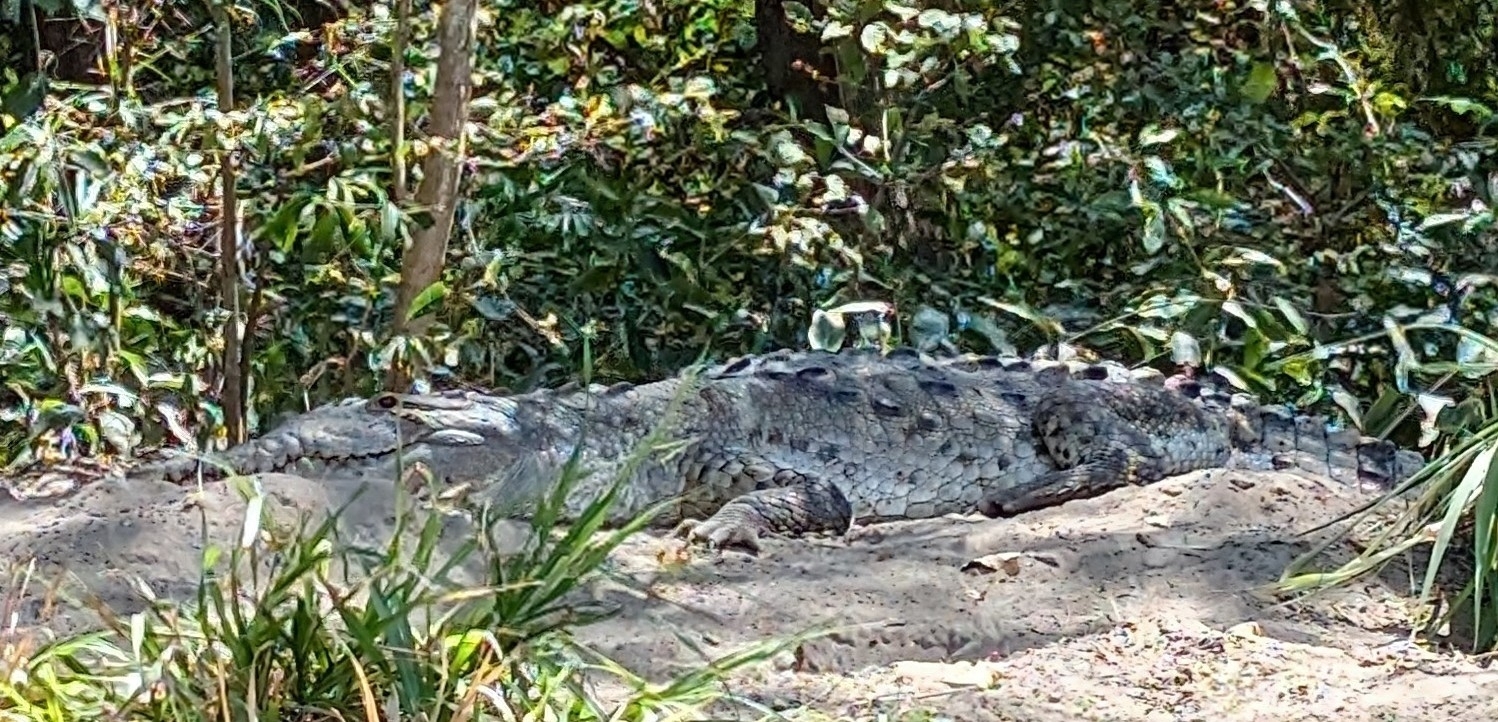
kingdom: Animalia
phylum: Chordata
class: Crocodylia
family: Crocodylidae
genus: Crocodylus
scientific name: Crocodylus acutus
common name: American crocodile
